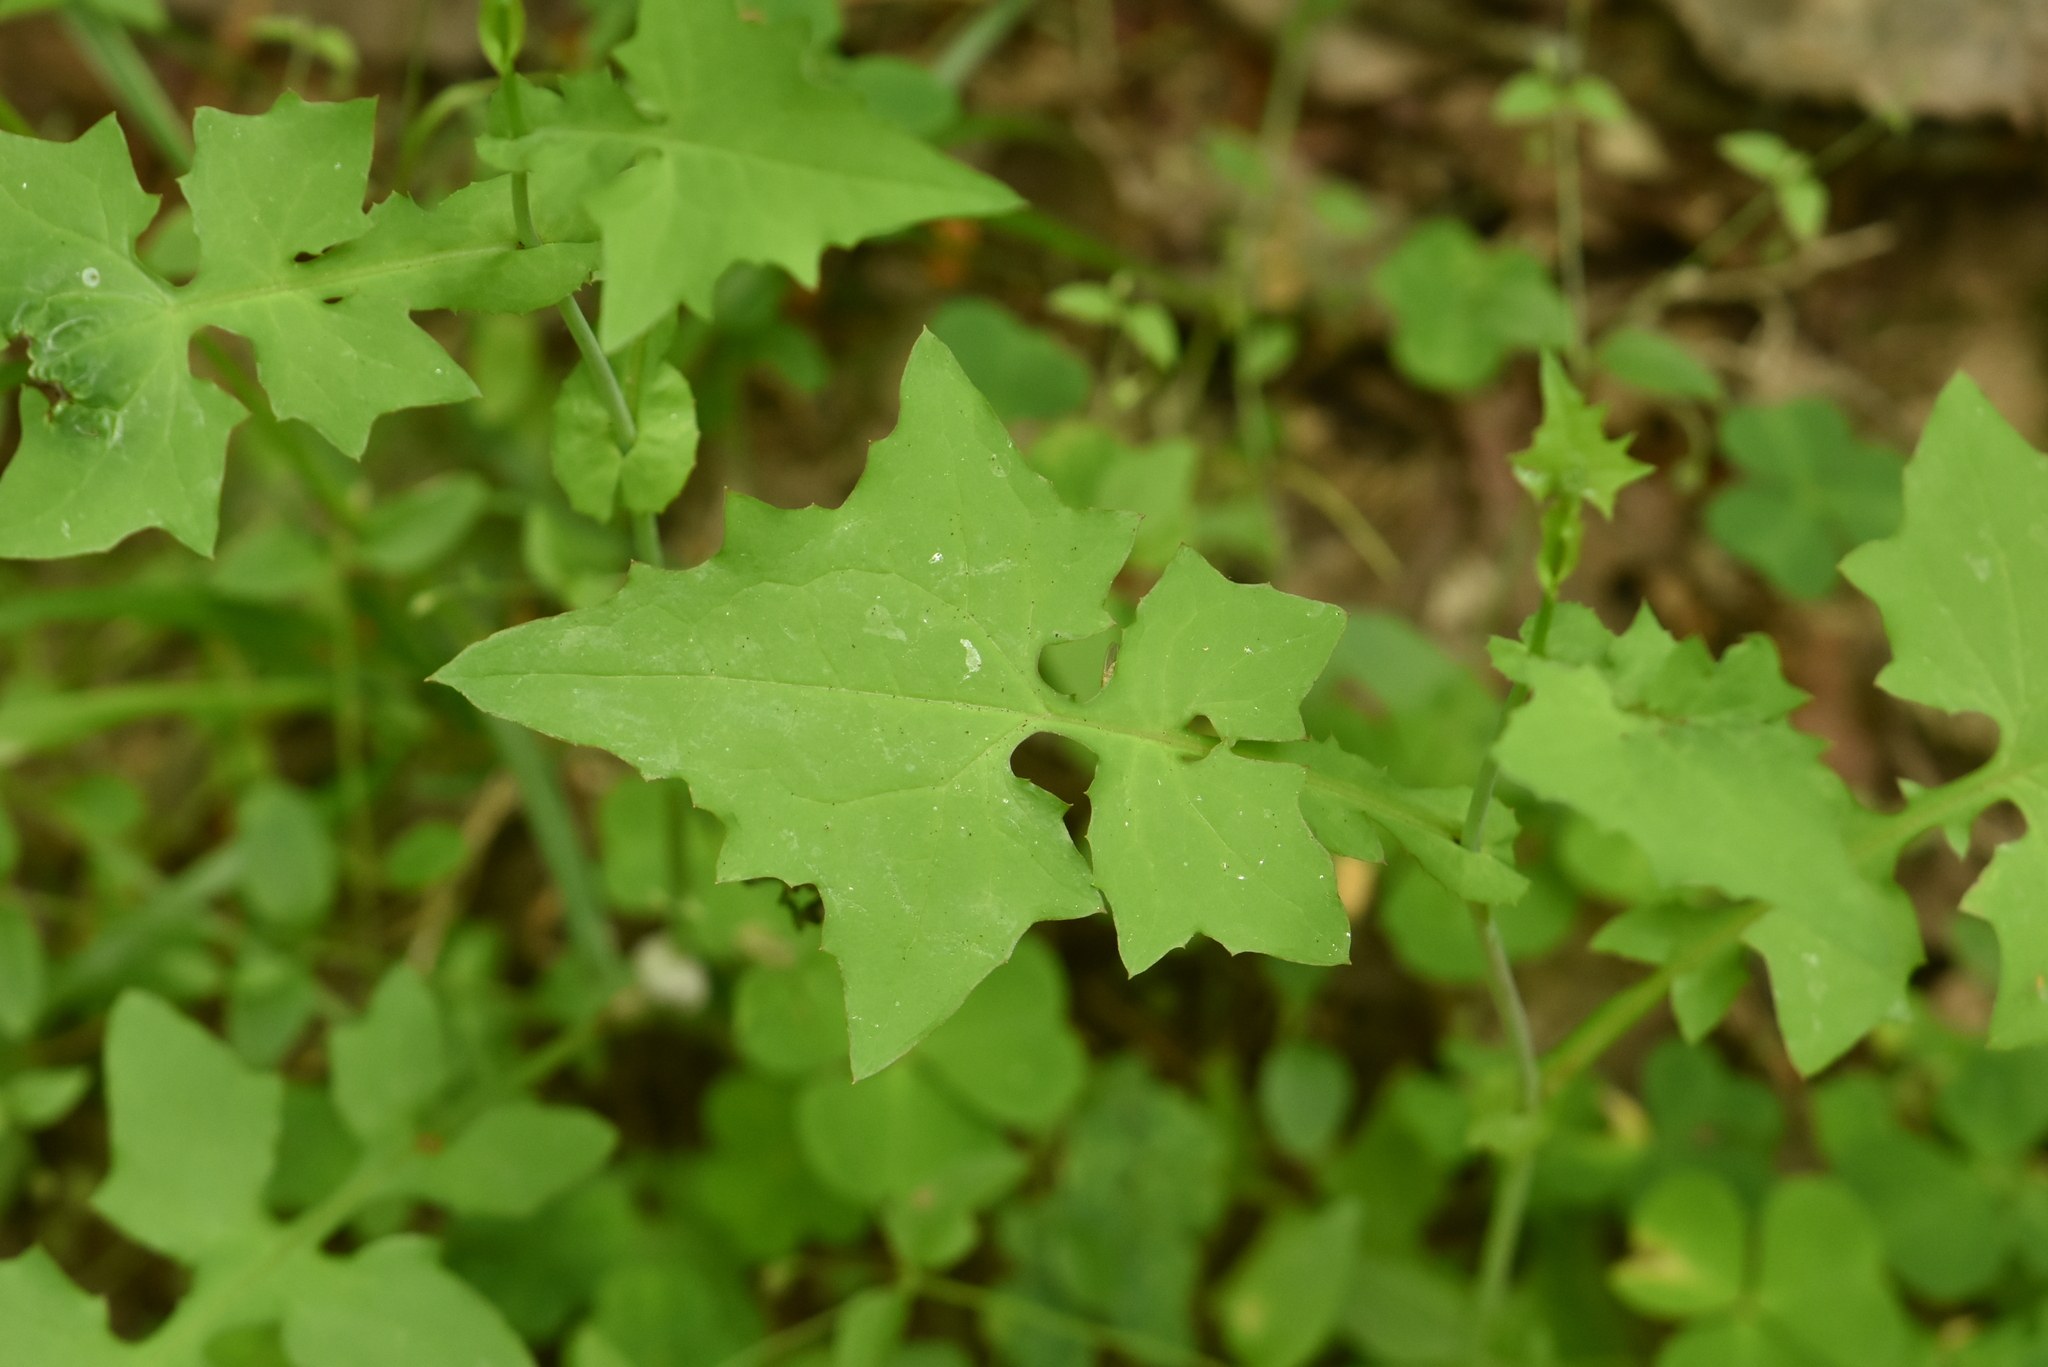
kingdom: Plantae
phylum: Tracheophyta
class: Magnoliopsida
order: Asterales
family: Asteraceae
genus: Mycelis
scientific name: Mycelis muralis
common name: Wall lettuce
